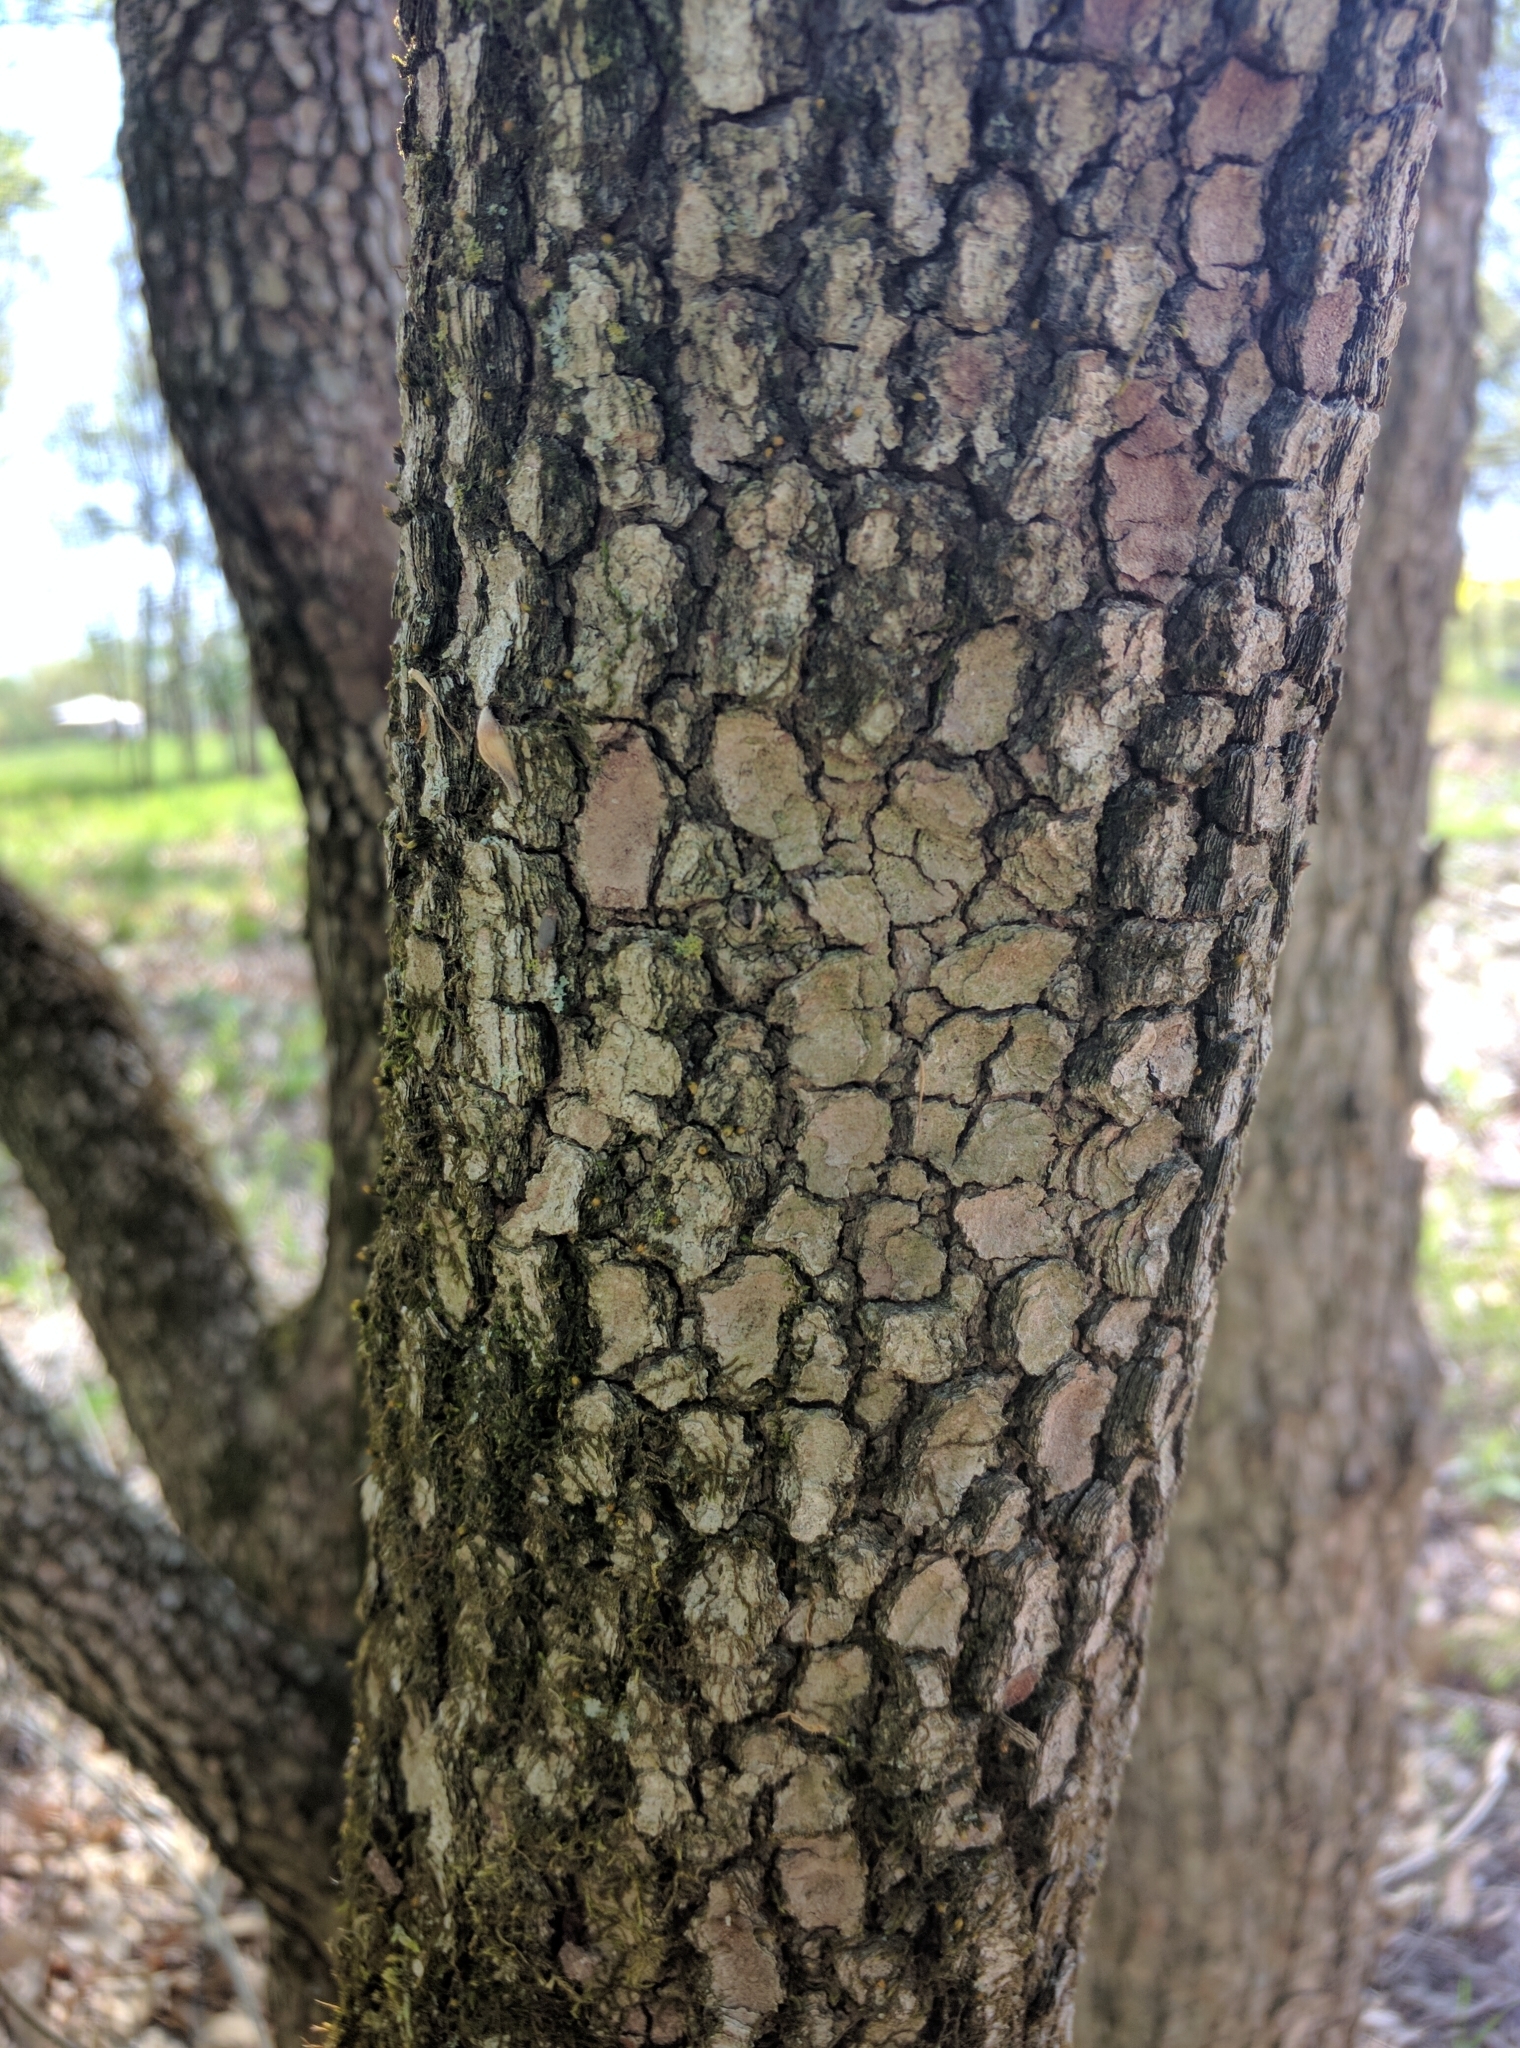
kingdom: Plantae
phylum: Tracheophyta
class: Magnoliopsida
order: Cornales
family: Cornaceae
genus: Cornus
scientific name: Cornus florida
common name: Flowering dogwood
